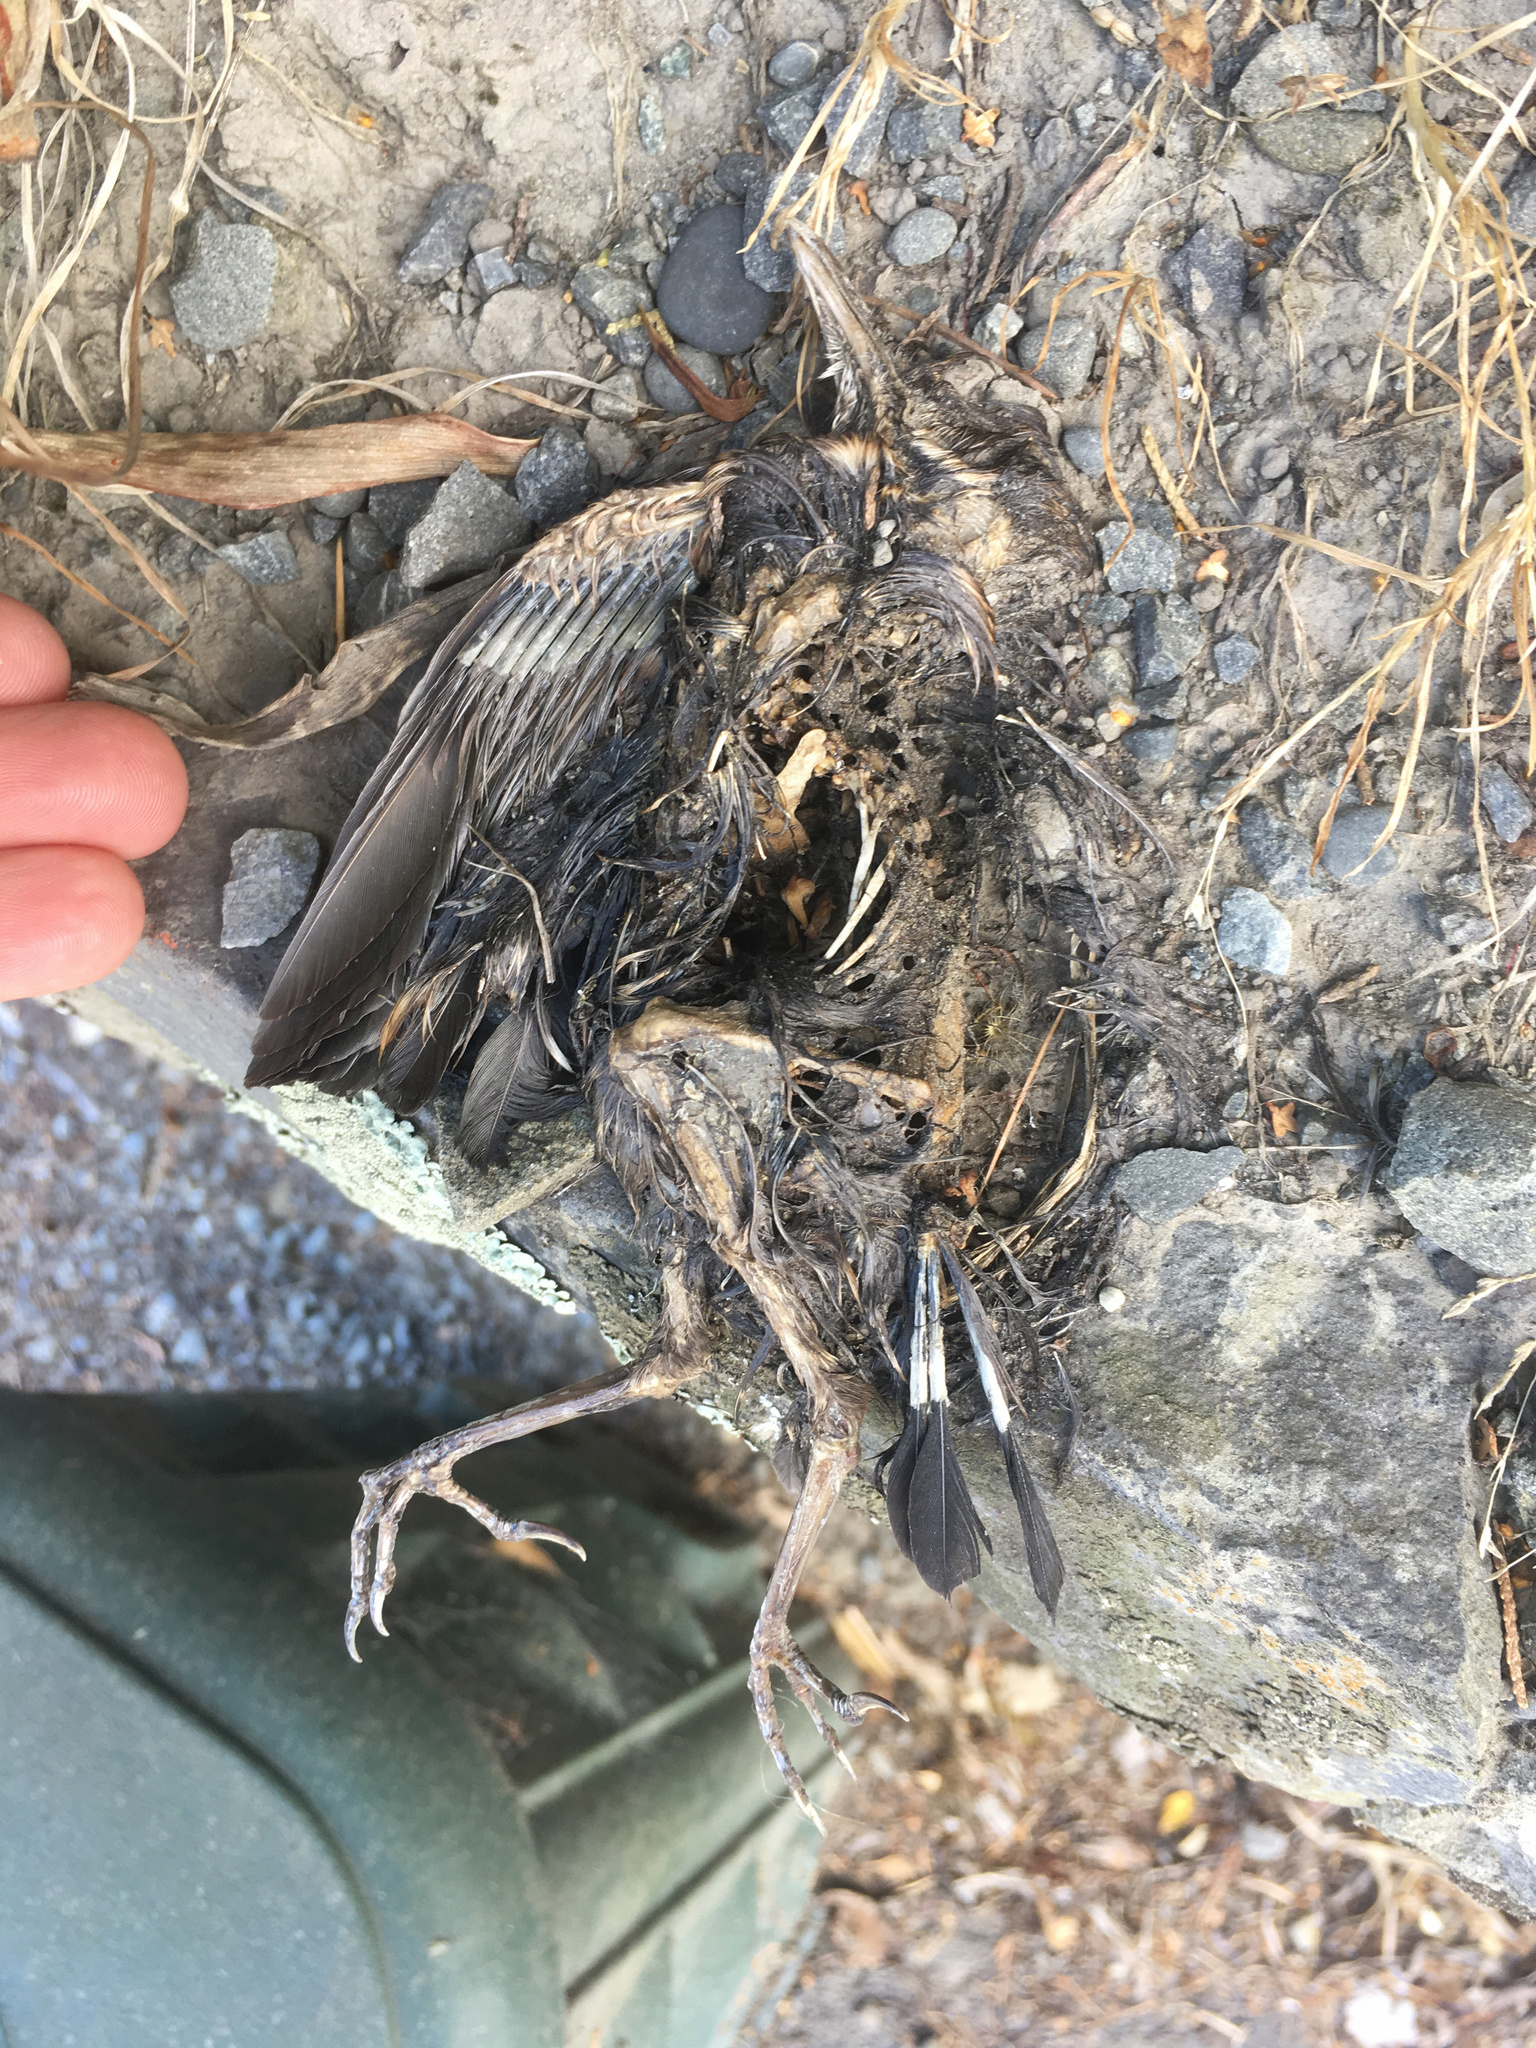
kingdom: Animalia
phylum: Chordata
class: Aves
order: Passeriformes
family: Turdidae
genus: Turdus
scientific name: Turdus merula
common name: Common blackbird
